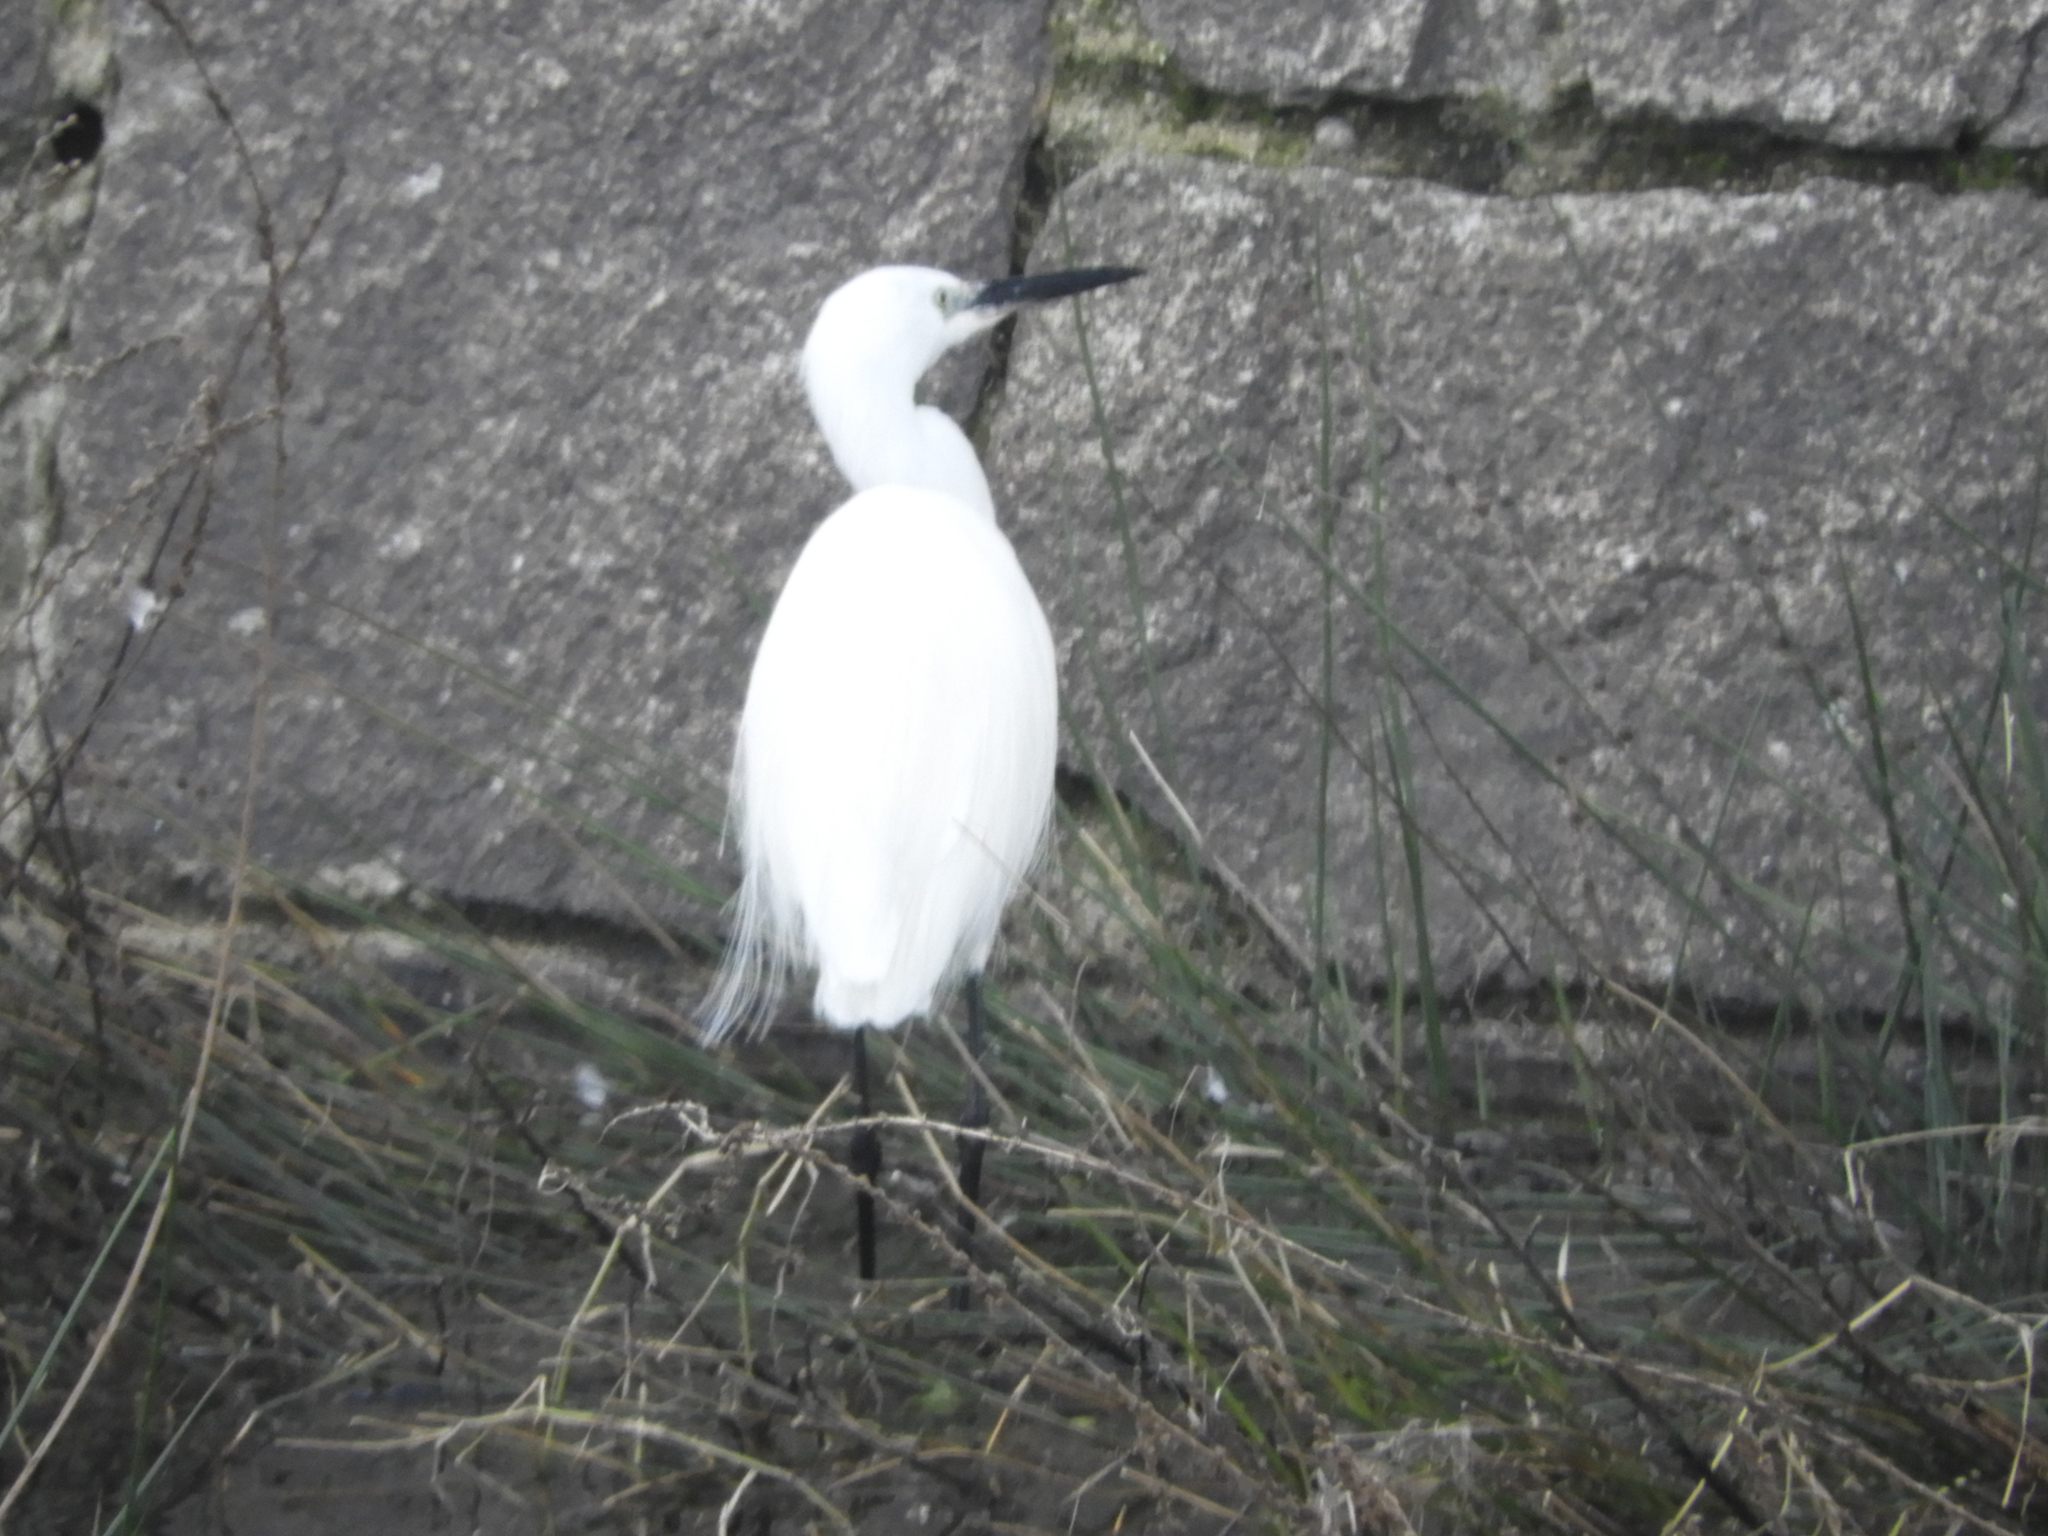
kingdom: Animalia
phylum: Chordata
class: Aves
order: Pelecaniformes
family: Ardeidae
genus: Egretta
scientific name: Egretta garzetta
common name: Little egret
